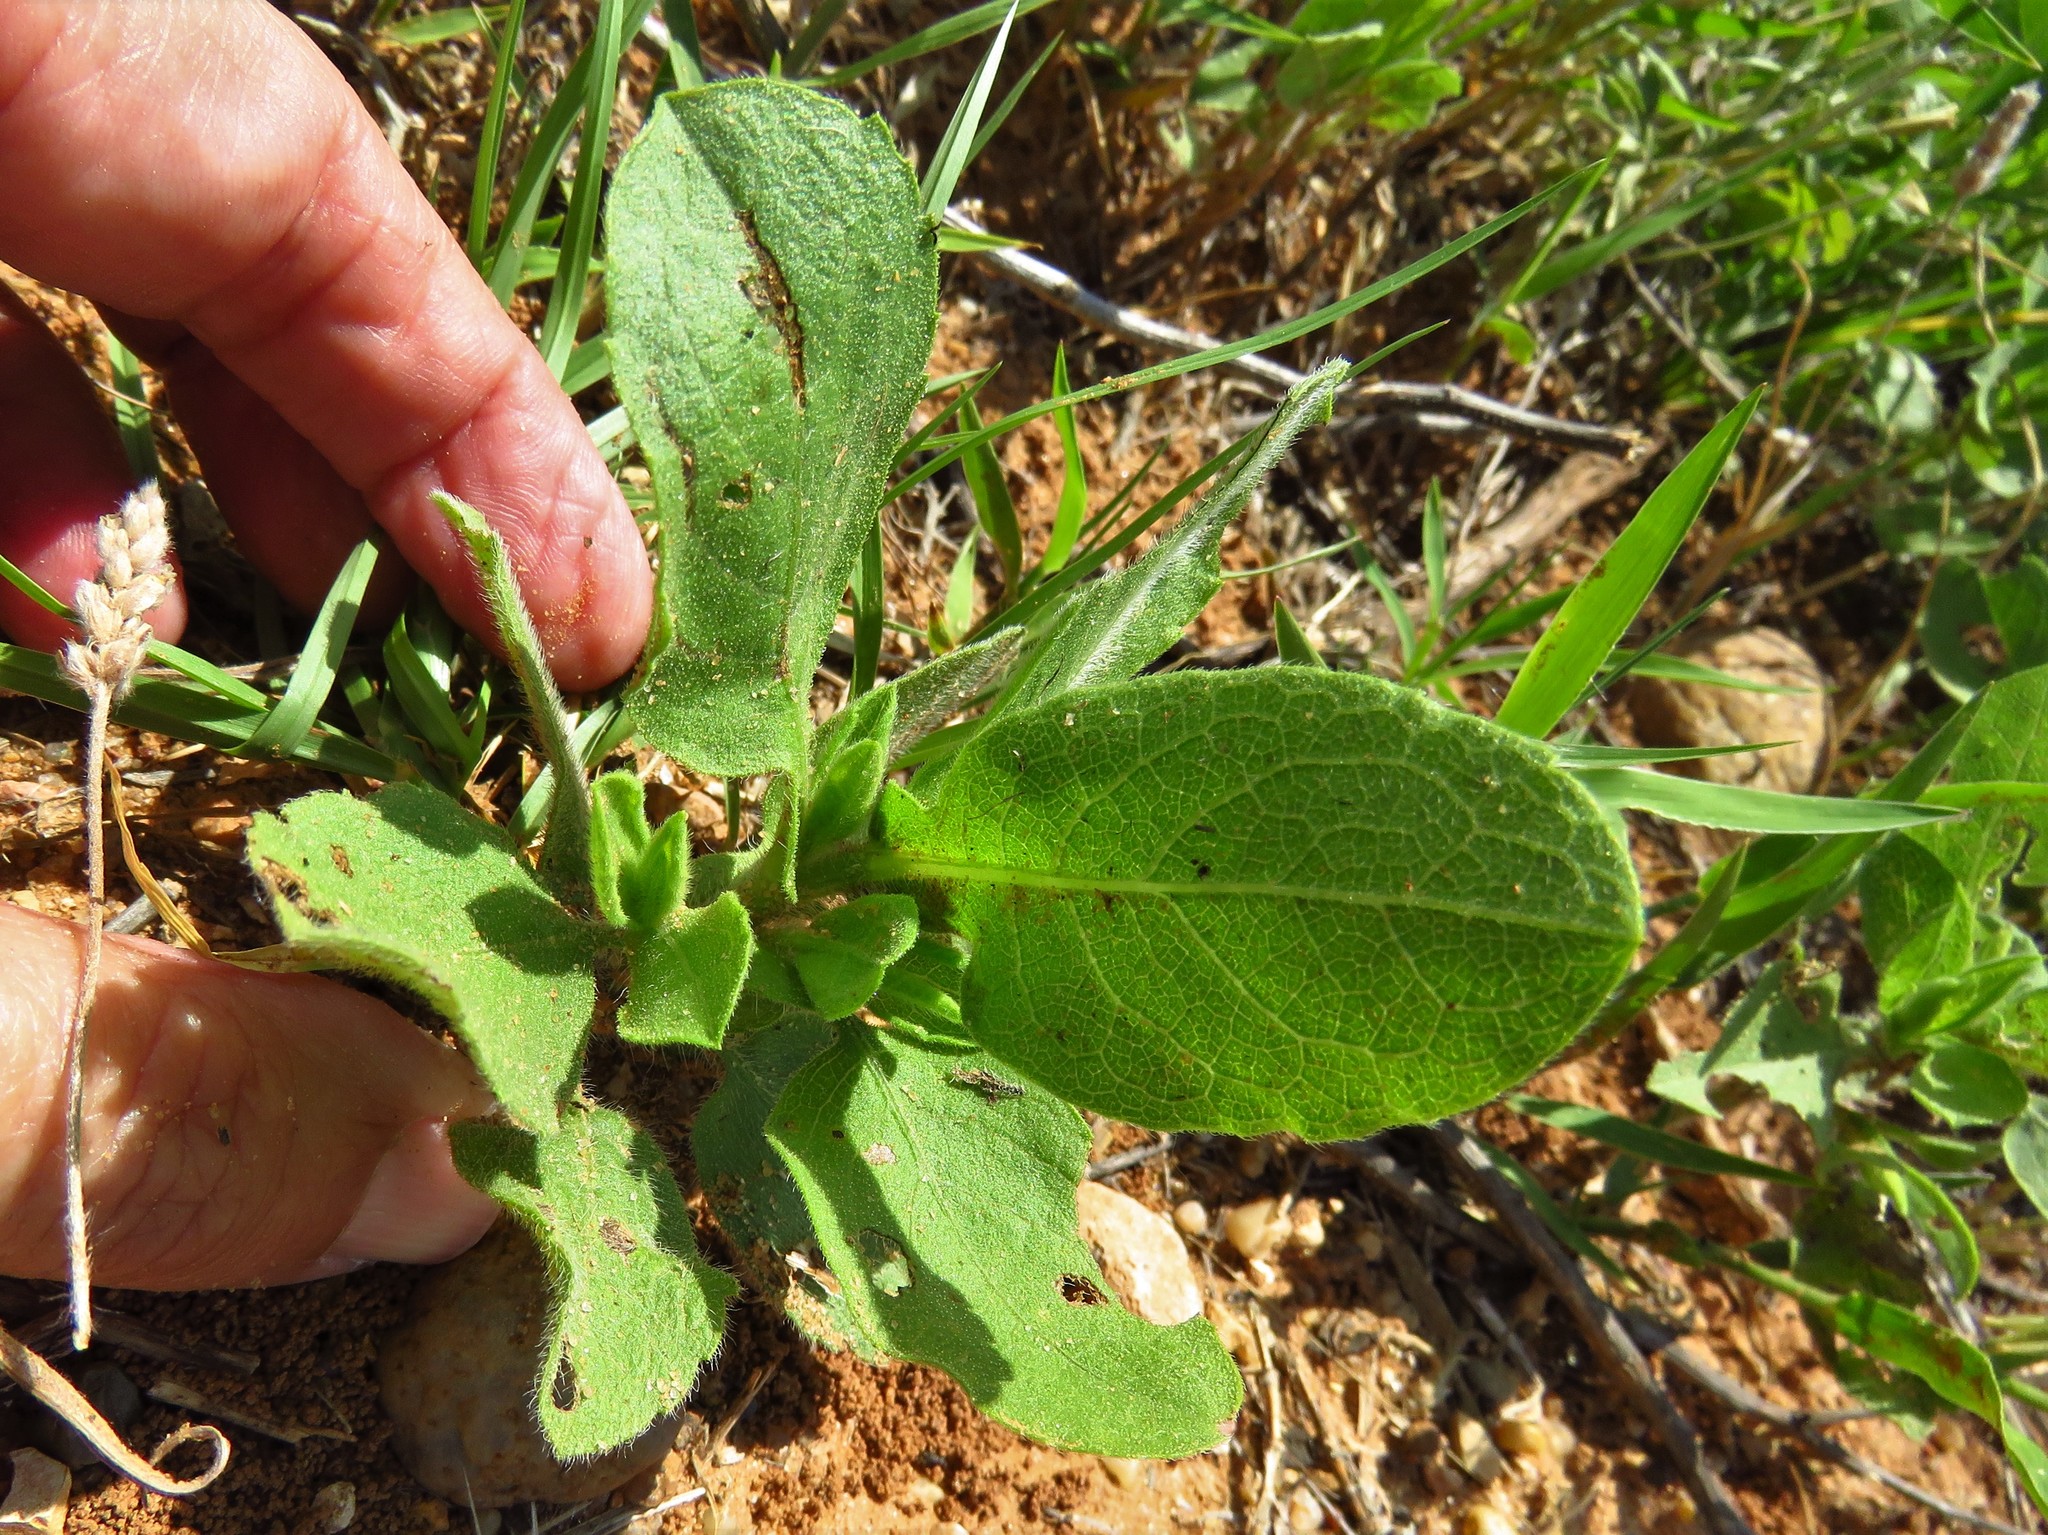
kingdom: Plantae
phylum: Tracheophyta
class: Magnoliopsida
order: Asterales
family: Asteraceae
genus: Heterotheca
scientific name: Heterotheca subaxillaris
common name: Camphorweed
